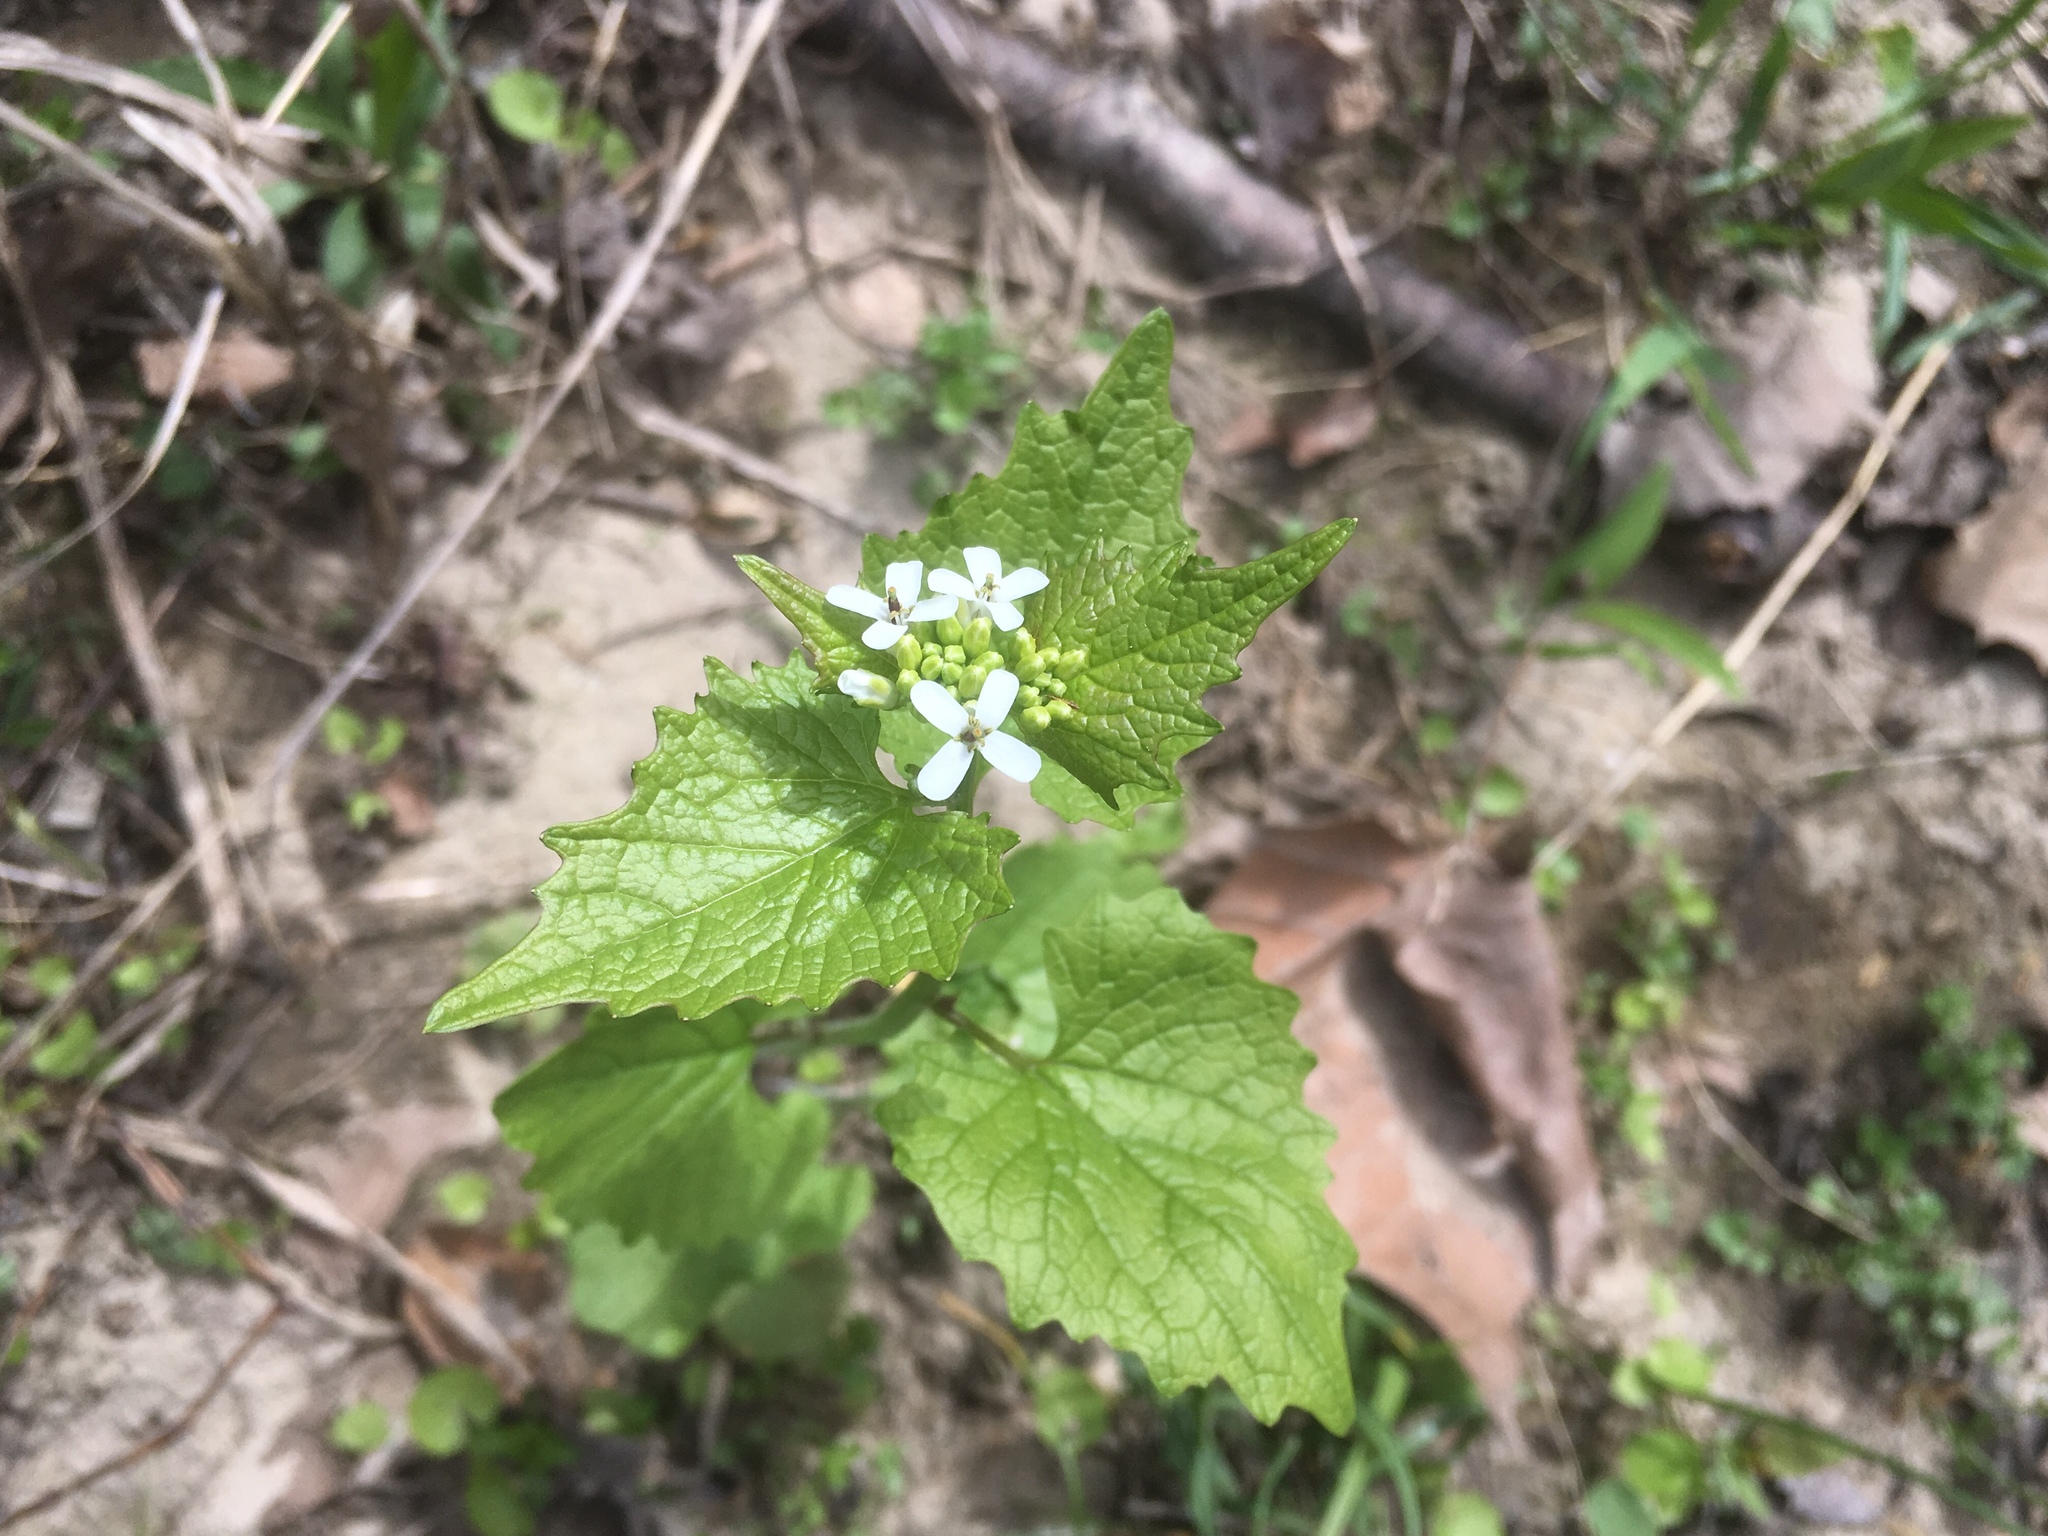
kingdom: Plantae
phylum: Tracheophyta
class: Magnoliopsida
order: Brassicales
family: Brassicaceae
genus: Alliaria
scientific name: Alliaria petiolata
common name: Garlic mustard
